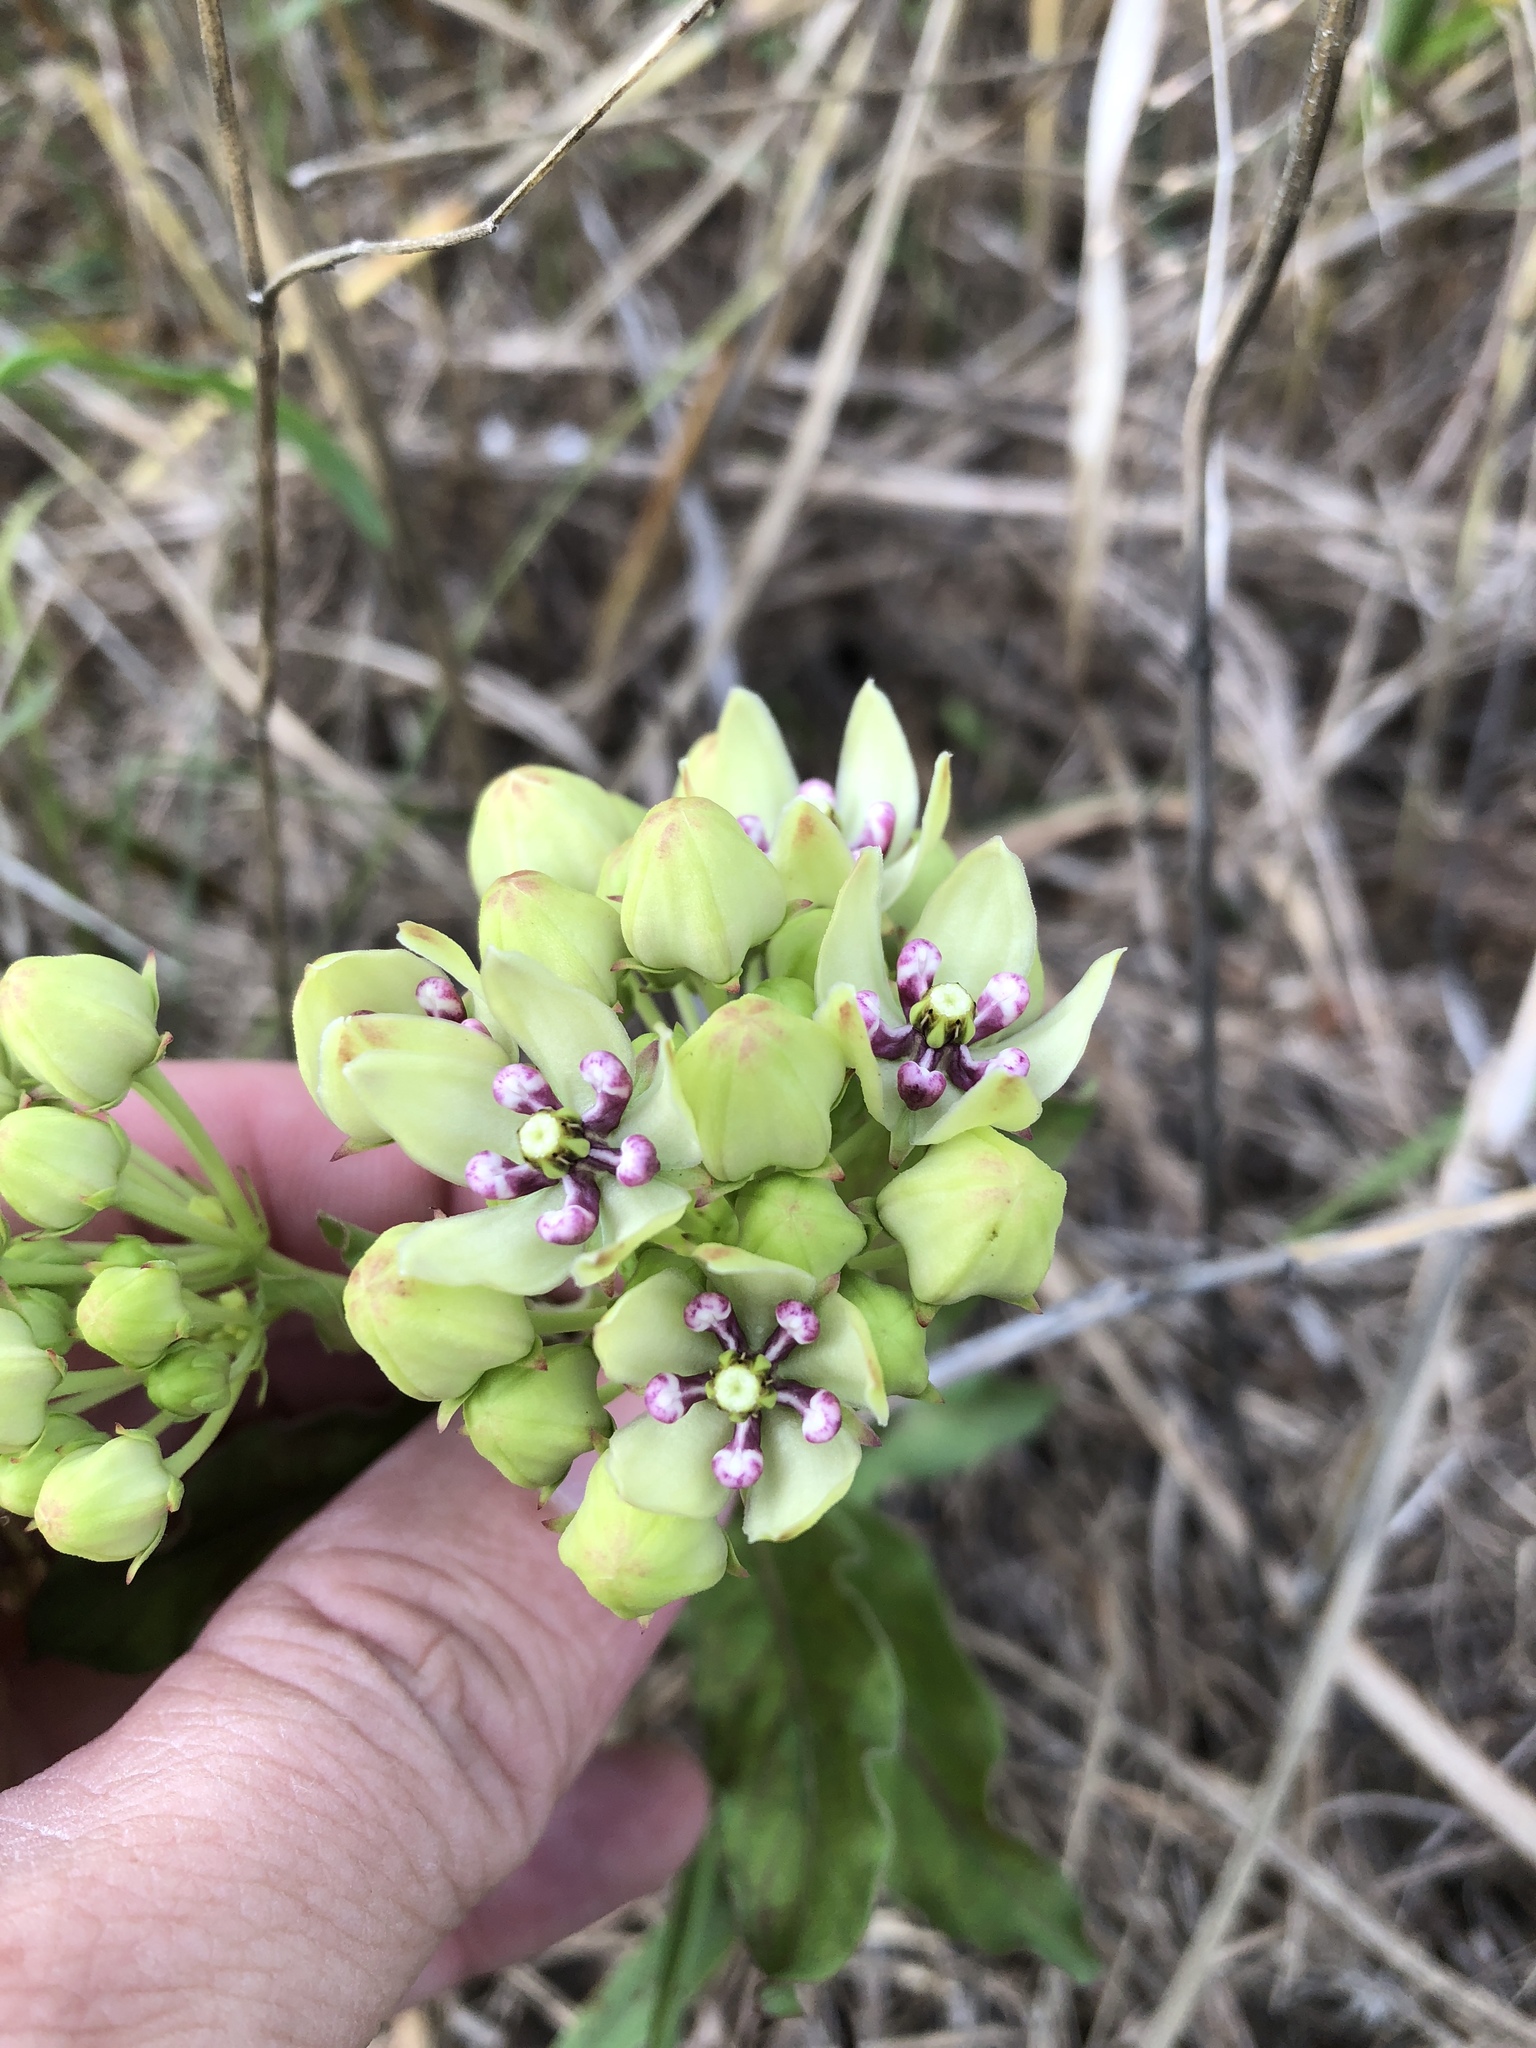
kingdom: Plantae
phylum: Tracheophyta
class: Magnoliopsida
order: Gentianales
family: Apocynaceae
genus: Asclepias
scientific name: Asclepias viridis
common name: Antelope-horns
